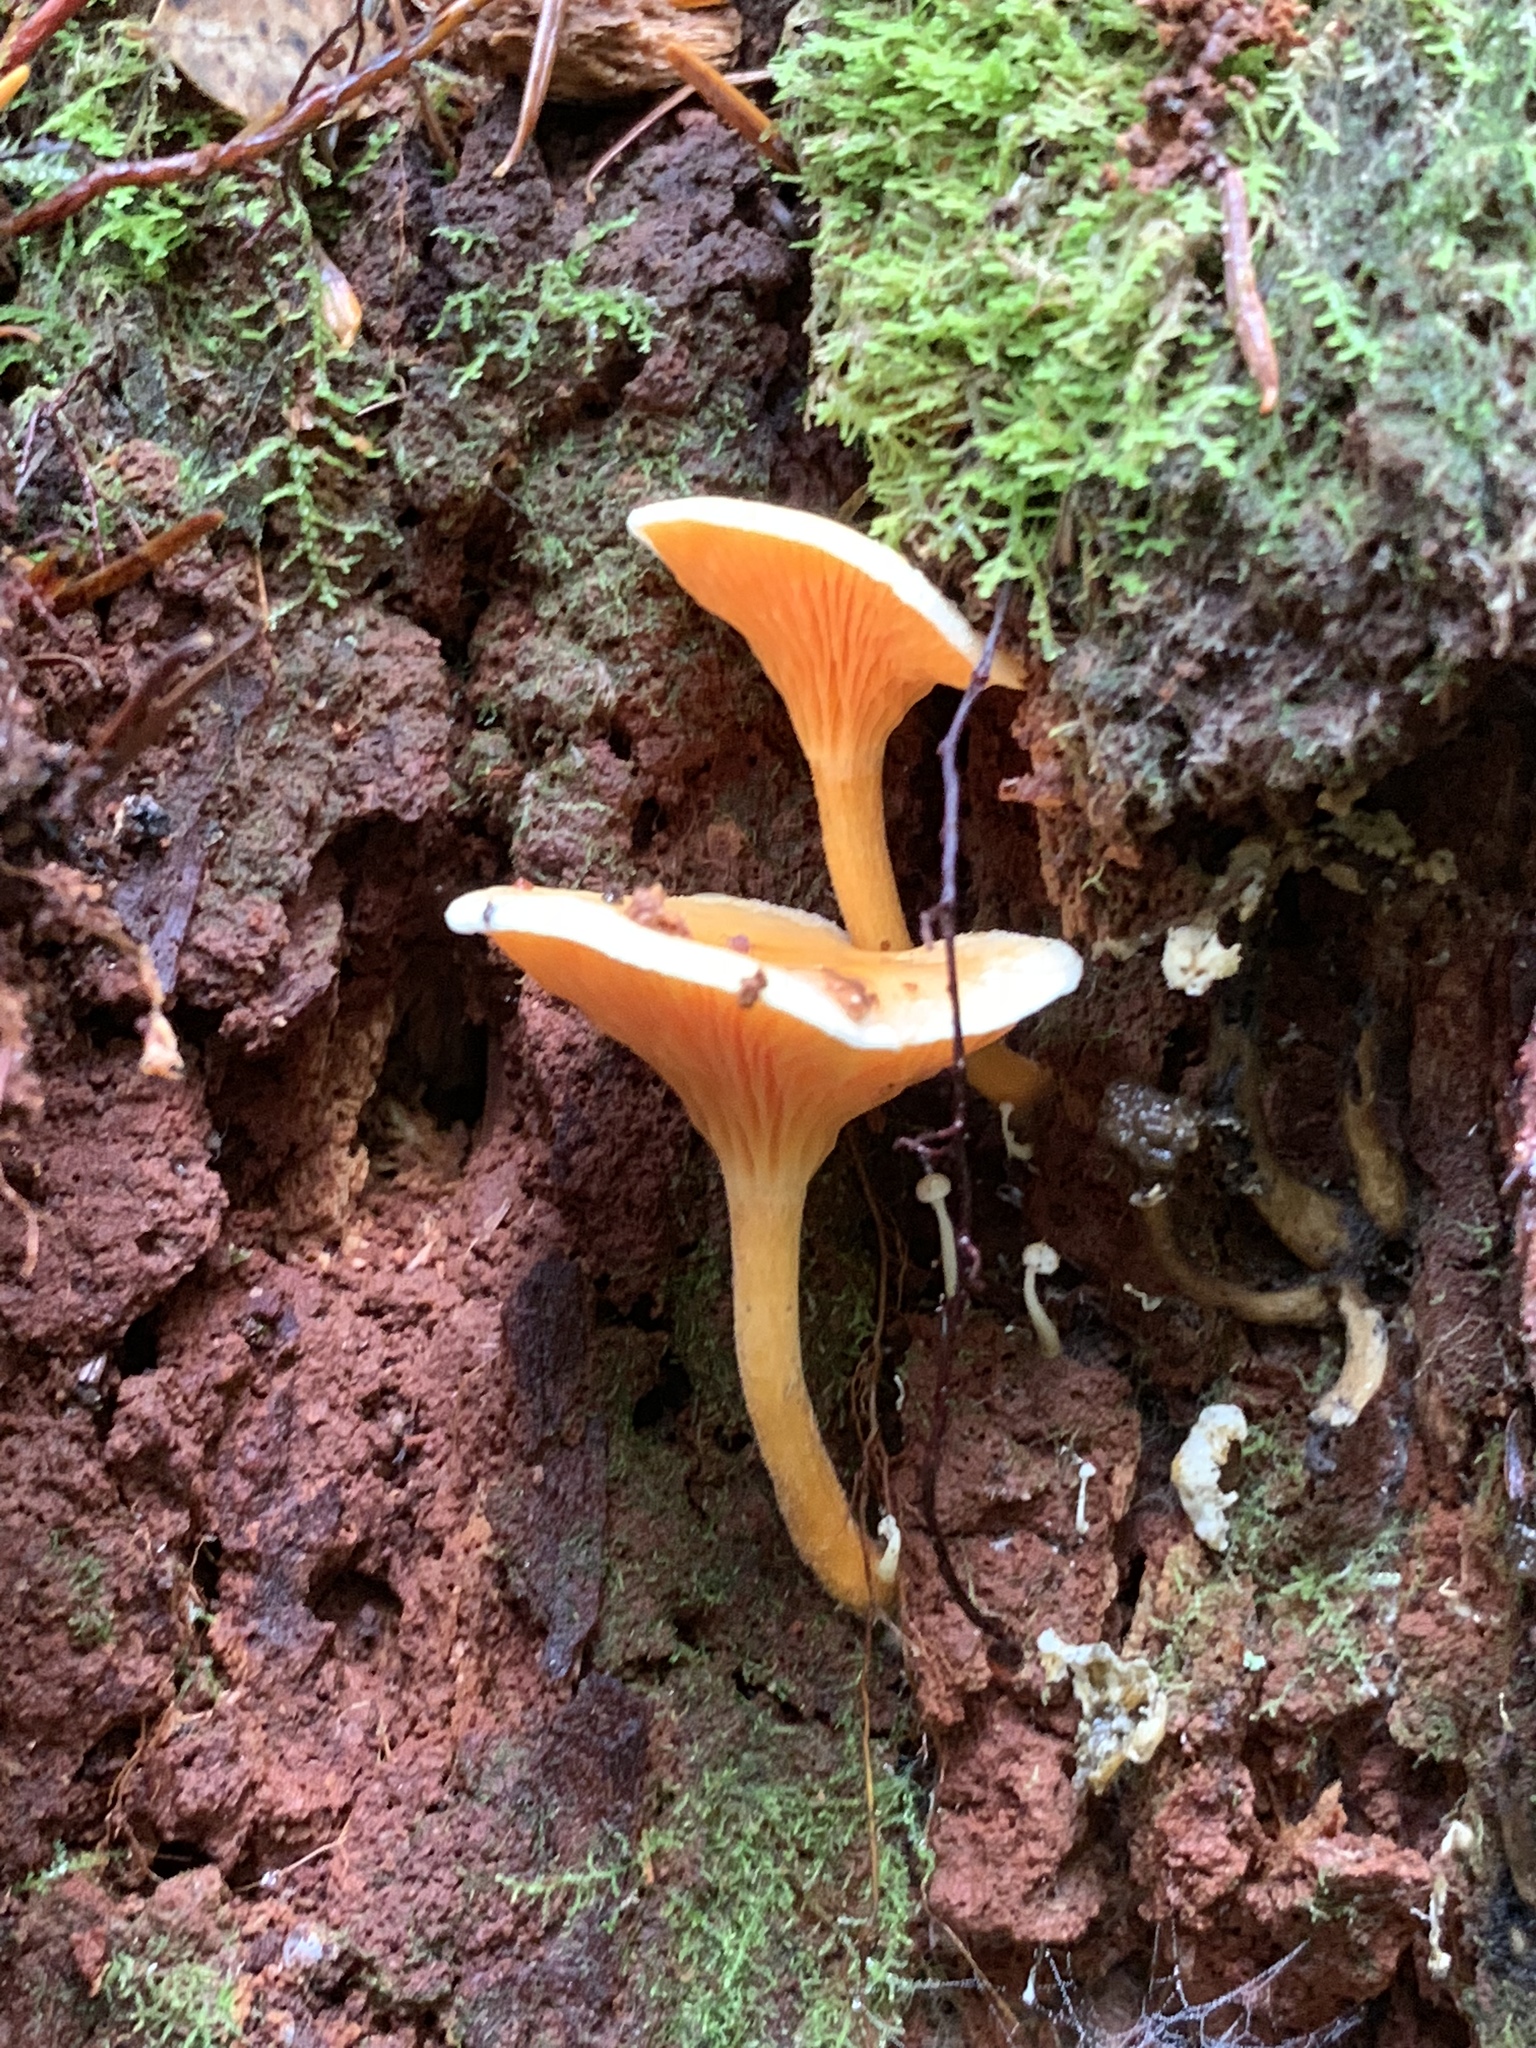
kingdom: Fungi
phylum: Basidiomycota
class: Agaricomycetes
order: Boletales
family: Hygrophoropsidaceae
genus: Hygrophoropsis
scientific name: Hygrophoropsis aurantiaca
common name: False chanterelle
